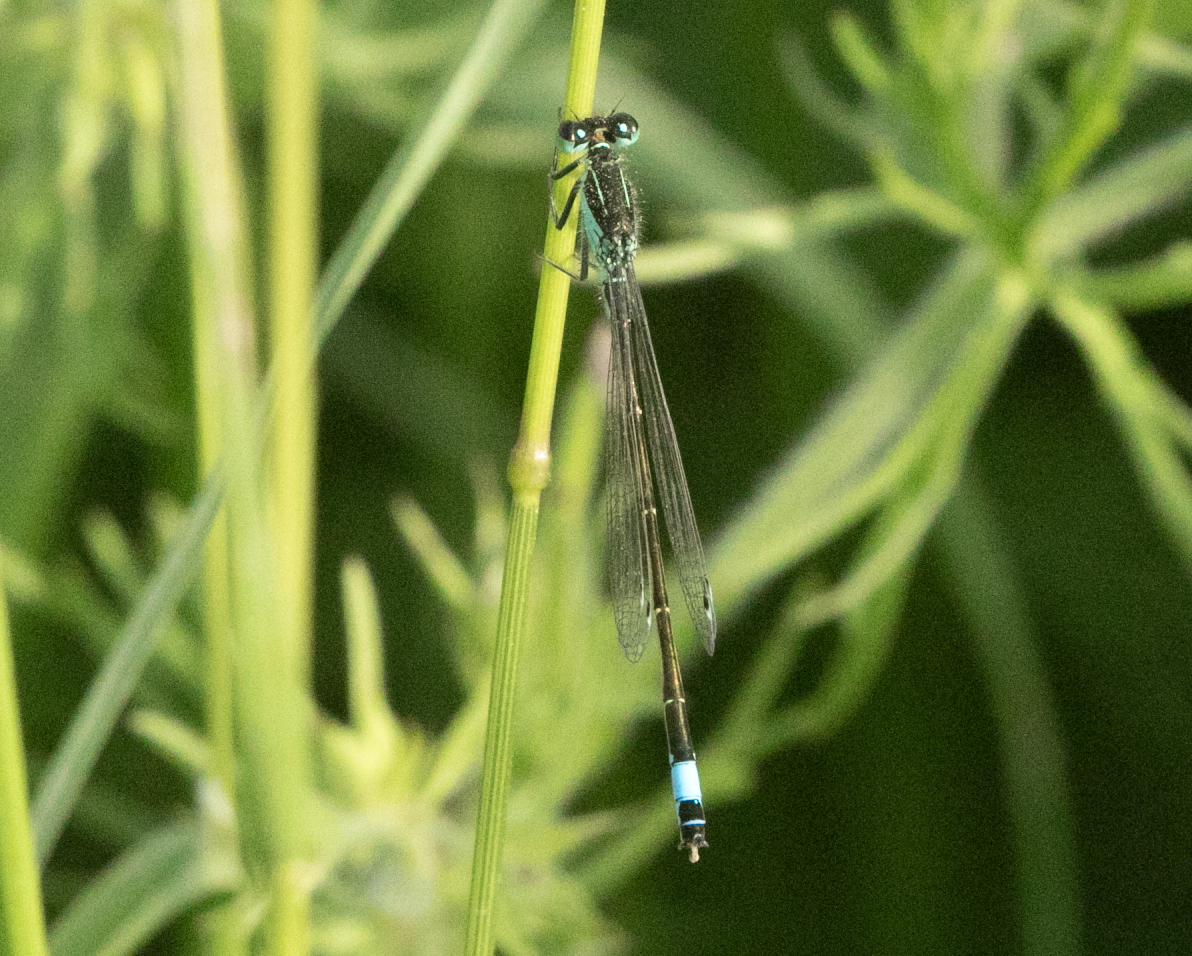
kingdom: Animalia
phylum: Arthropoda
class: Insecta
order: Odonata
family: Coenagrionidae
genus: Ischnura
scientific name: Ischnura elegans
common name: Blue-tailed damselfly
